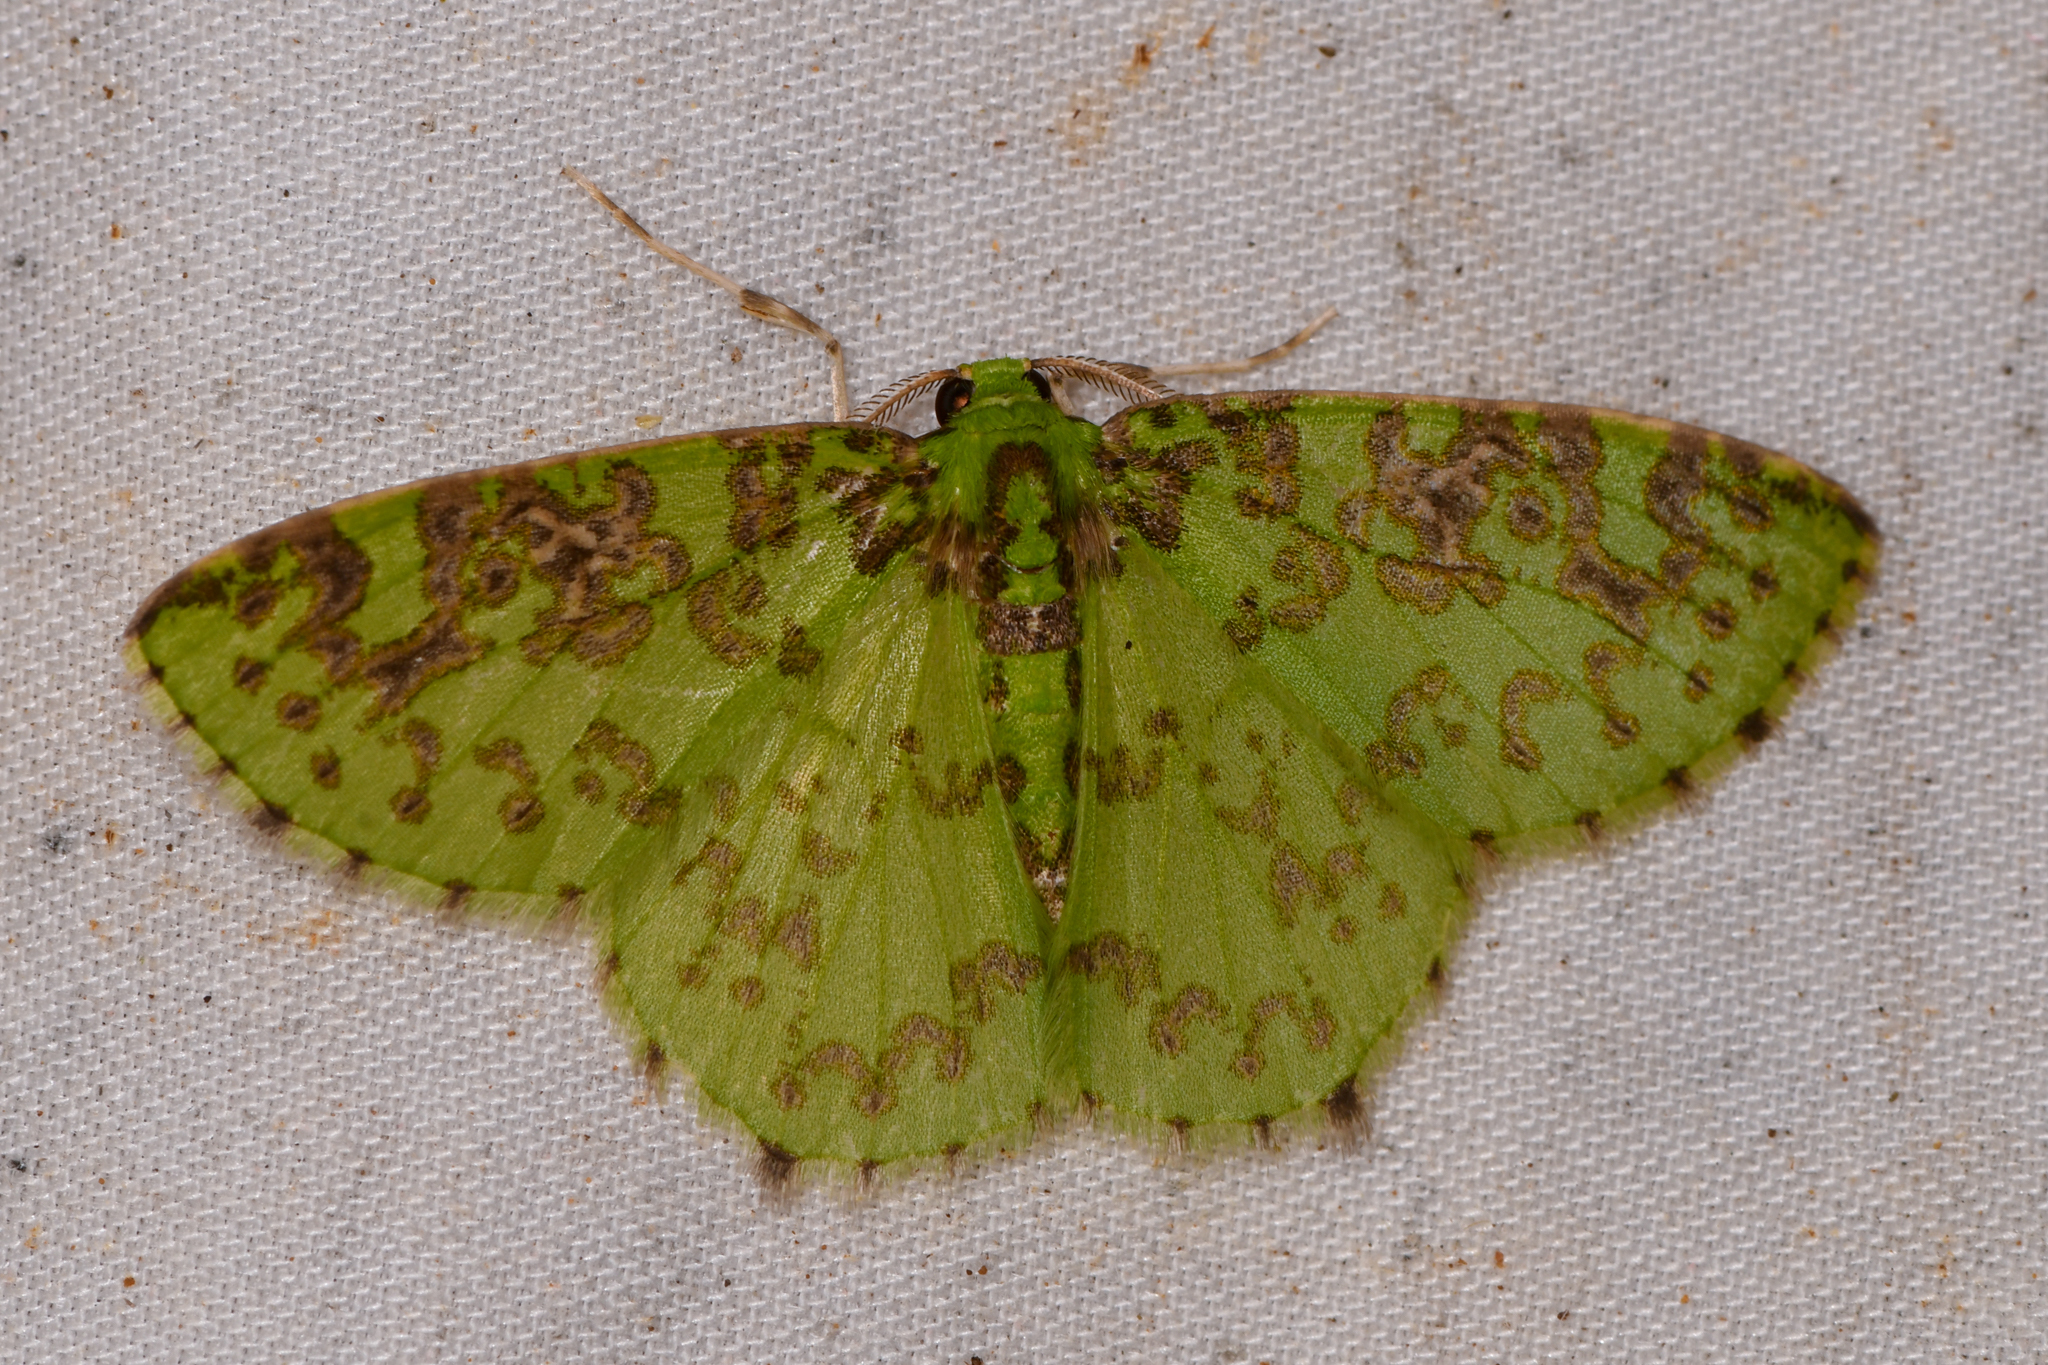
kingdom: Animalia
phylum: Arthropoda
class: Insecta
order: Lepidoptera
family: Geometridae
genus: Nemoria
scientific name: Nemoria scriptaria
